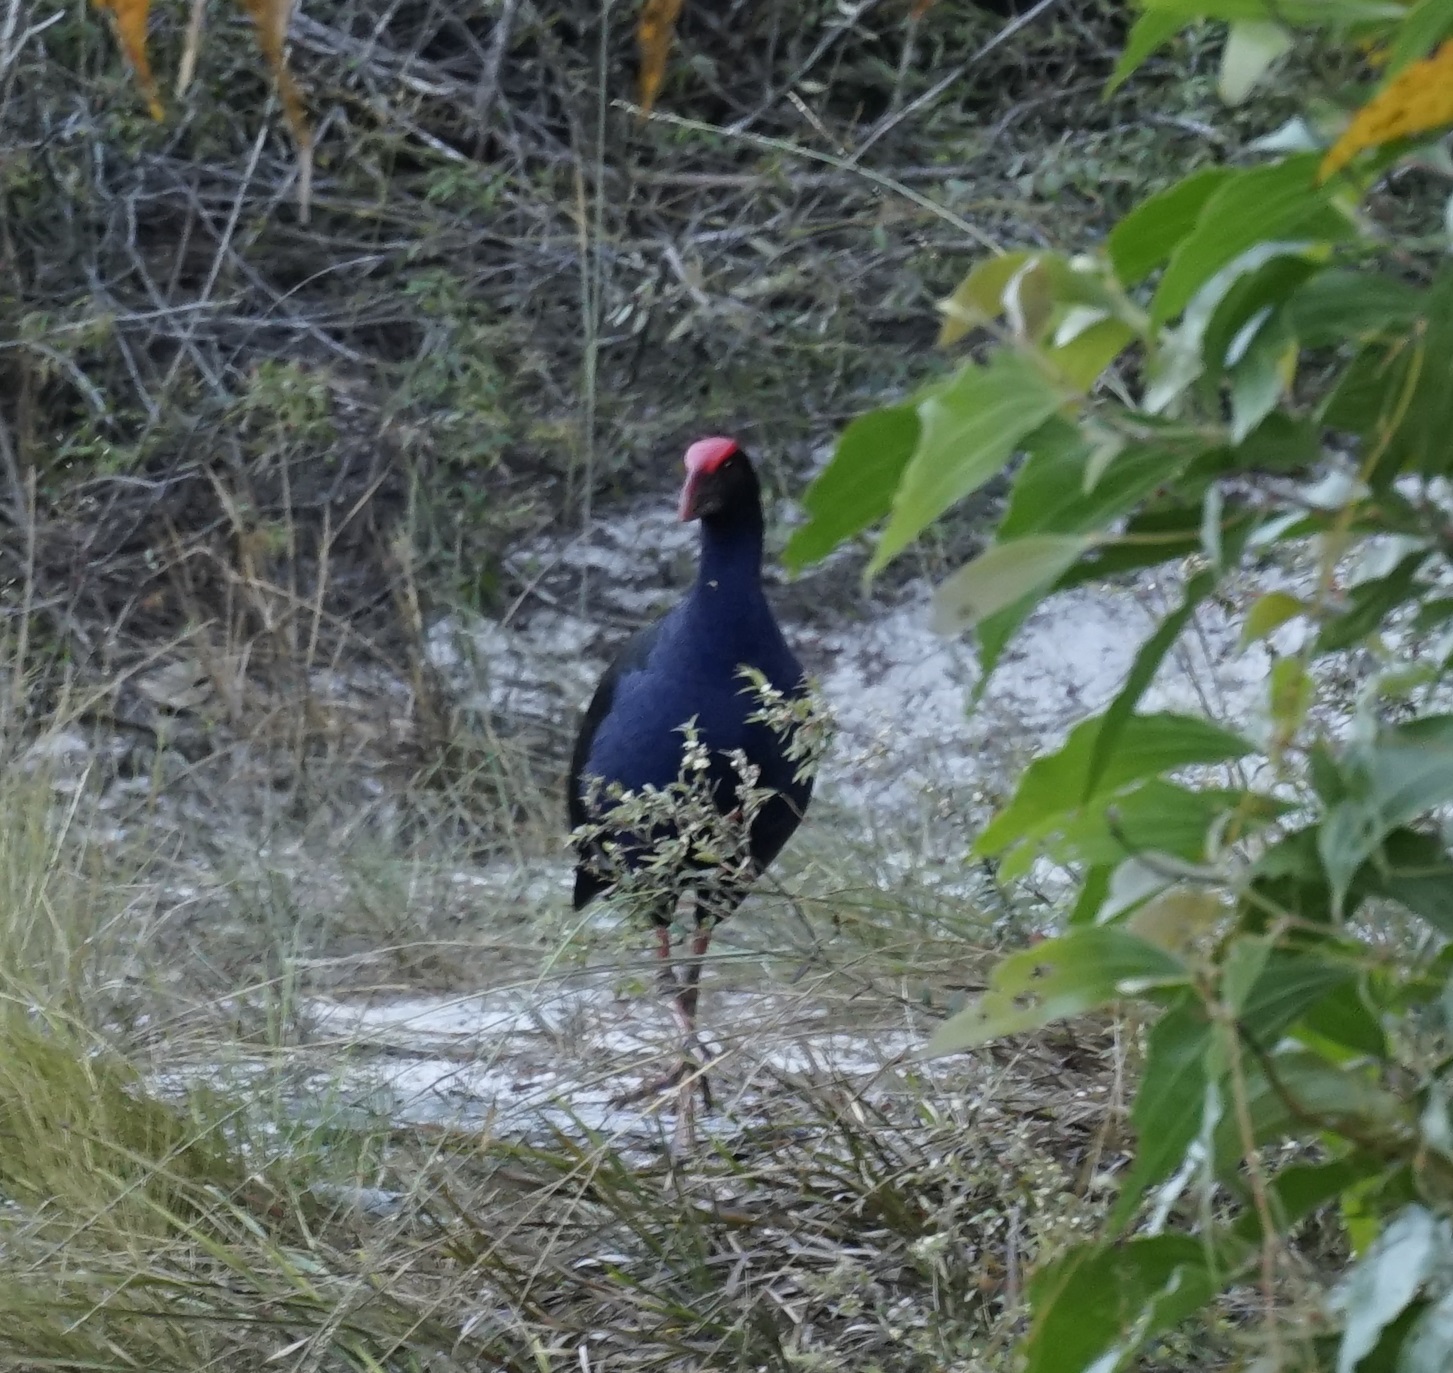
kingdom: Animalia
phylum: Chordata
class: Aves
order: Gruiformes
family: Rallidae
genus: Porphyrio
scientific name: Porphyrio melanotus
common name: Australasian swamphen
